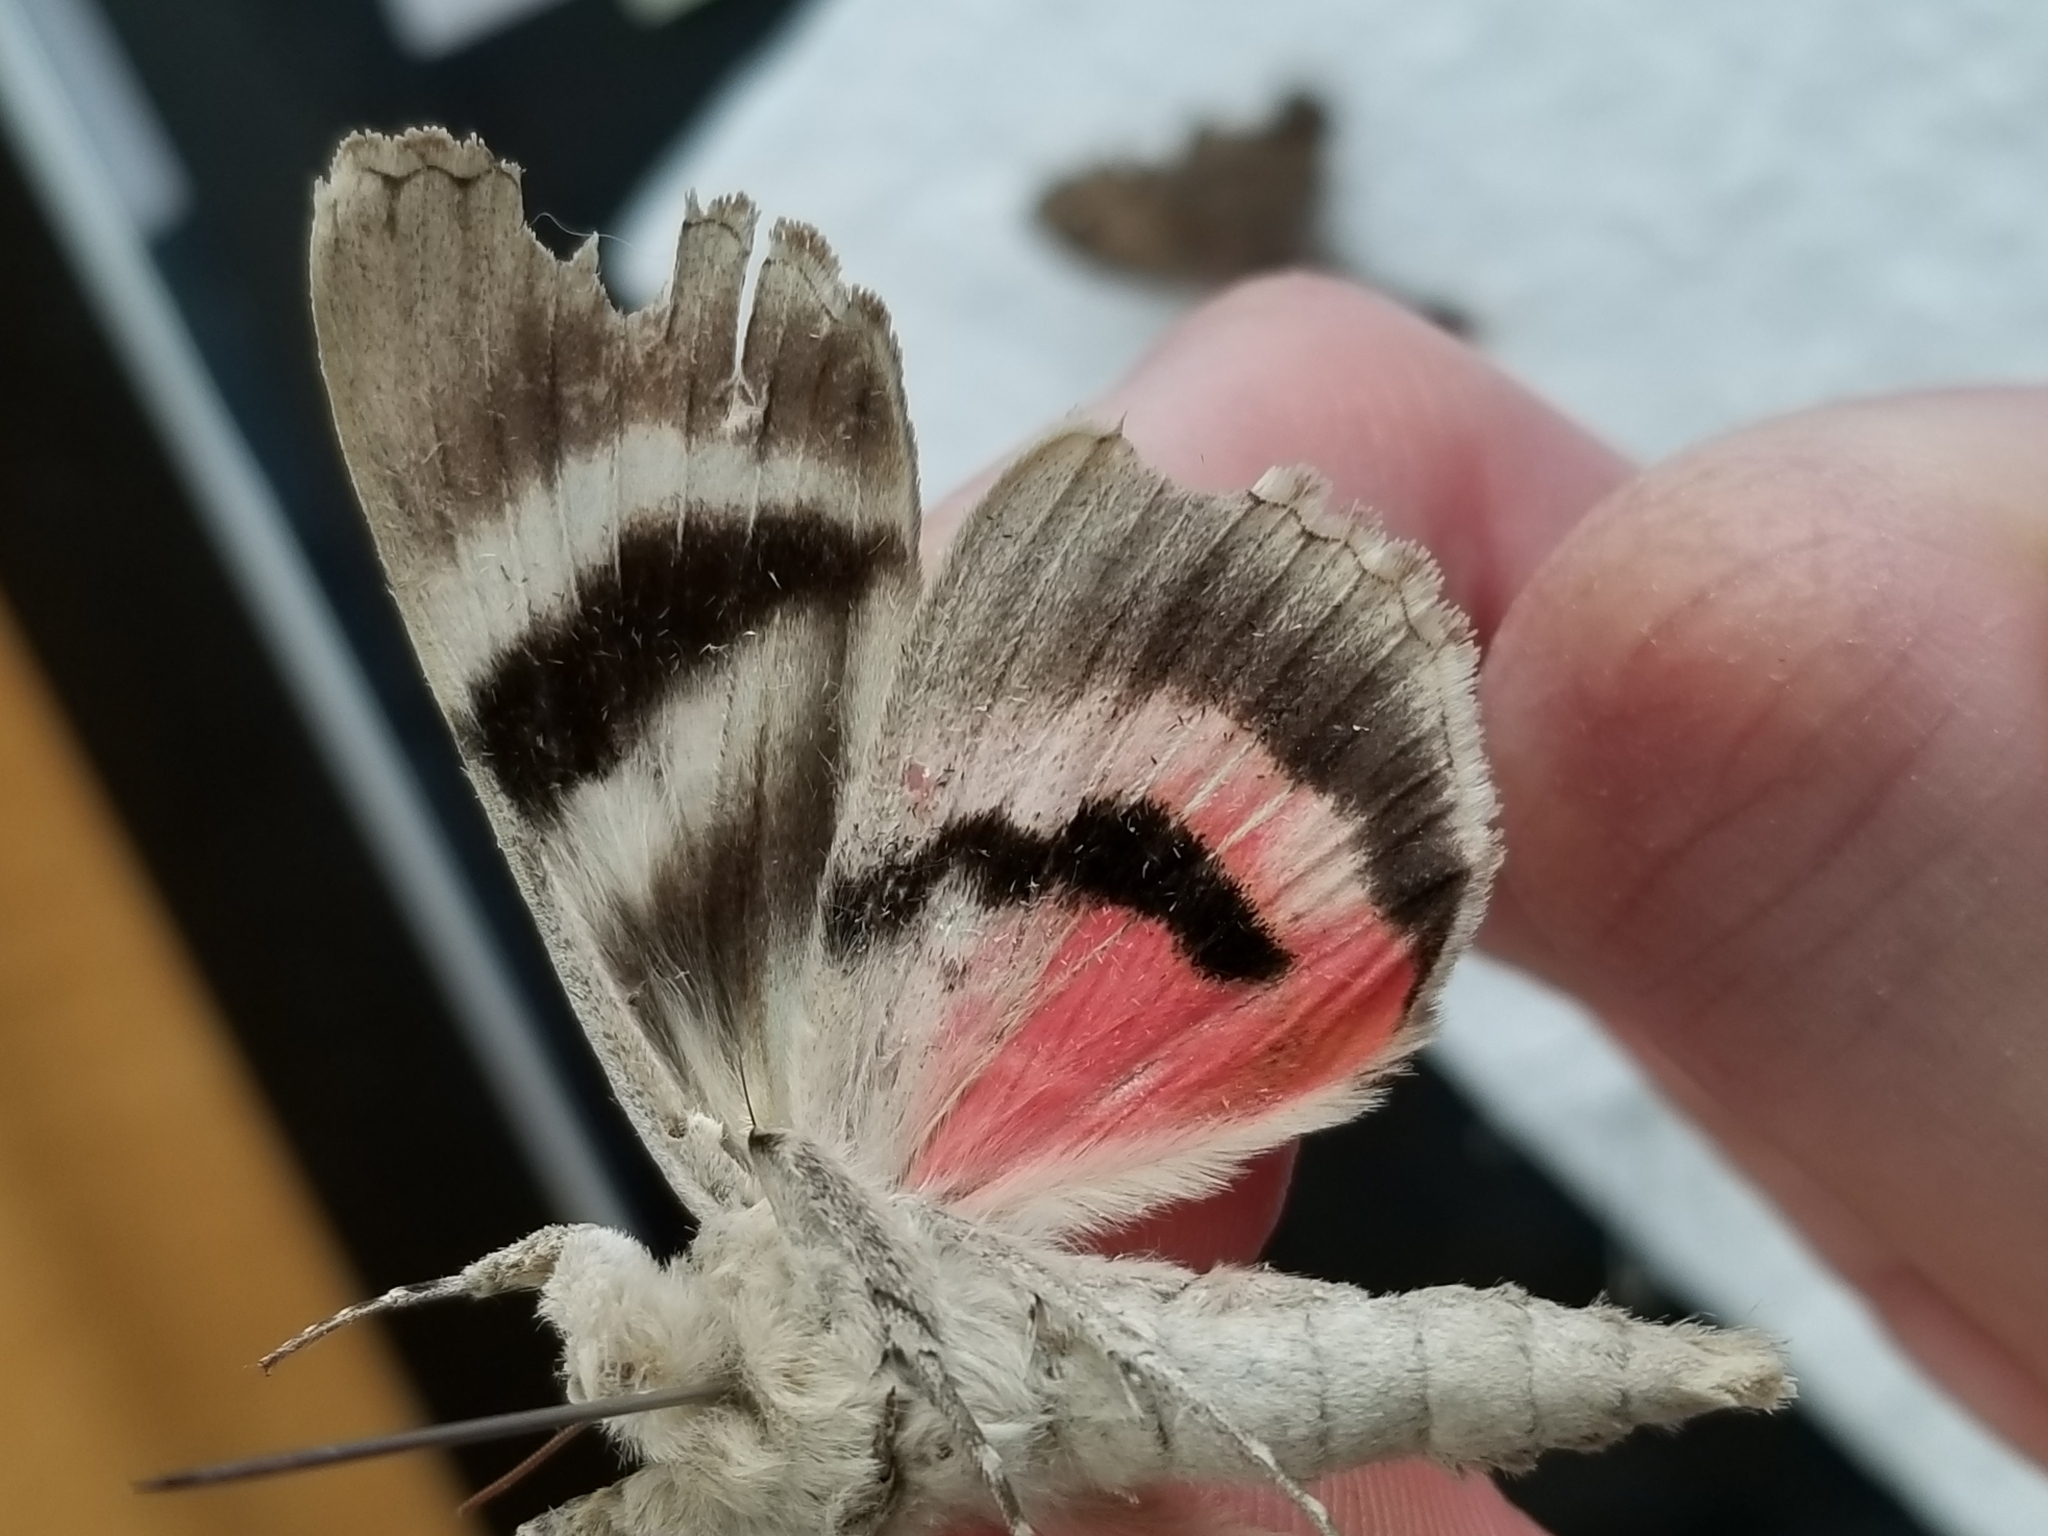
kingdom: Animalia
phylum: Arthropoda
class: Insecta
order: Lepidoptera
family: Erebidae
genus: Catocala
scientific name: Catocala faustina
